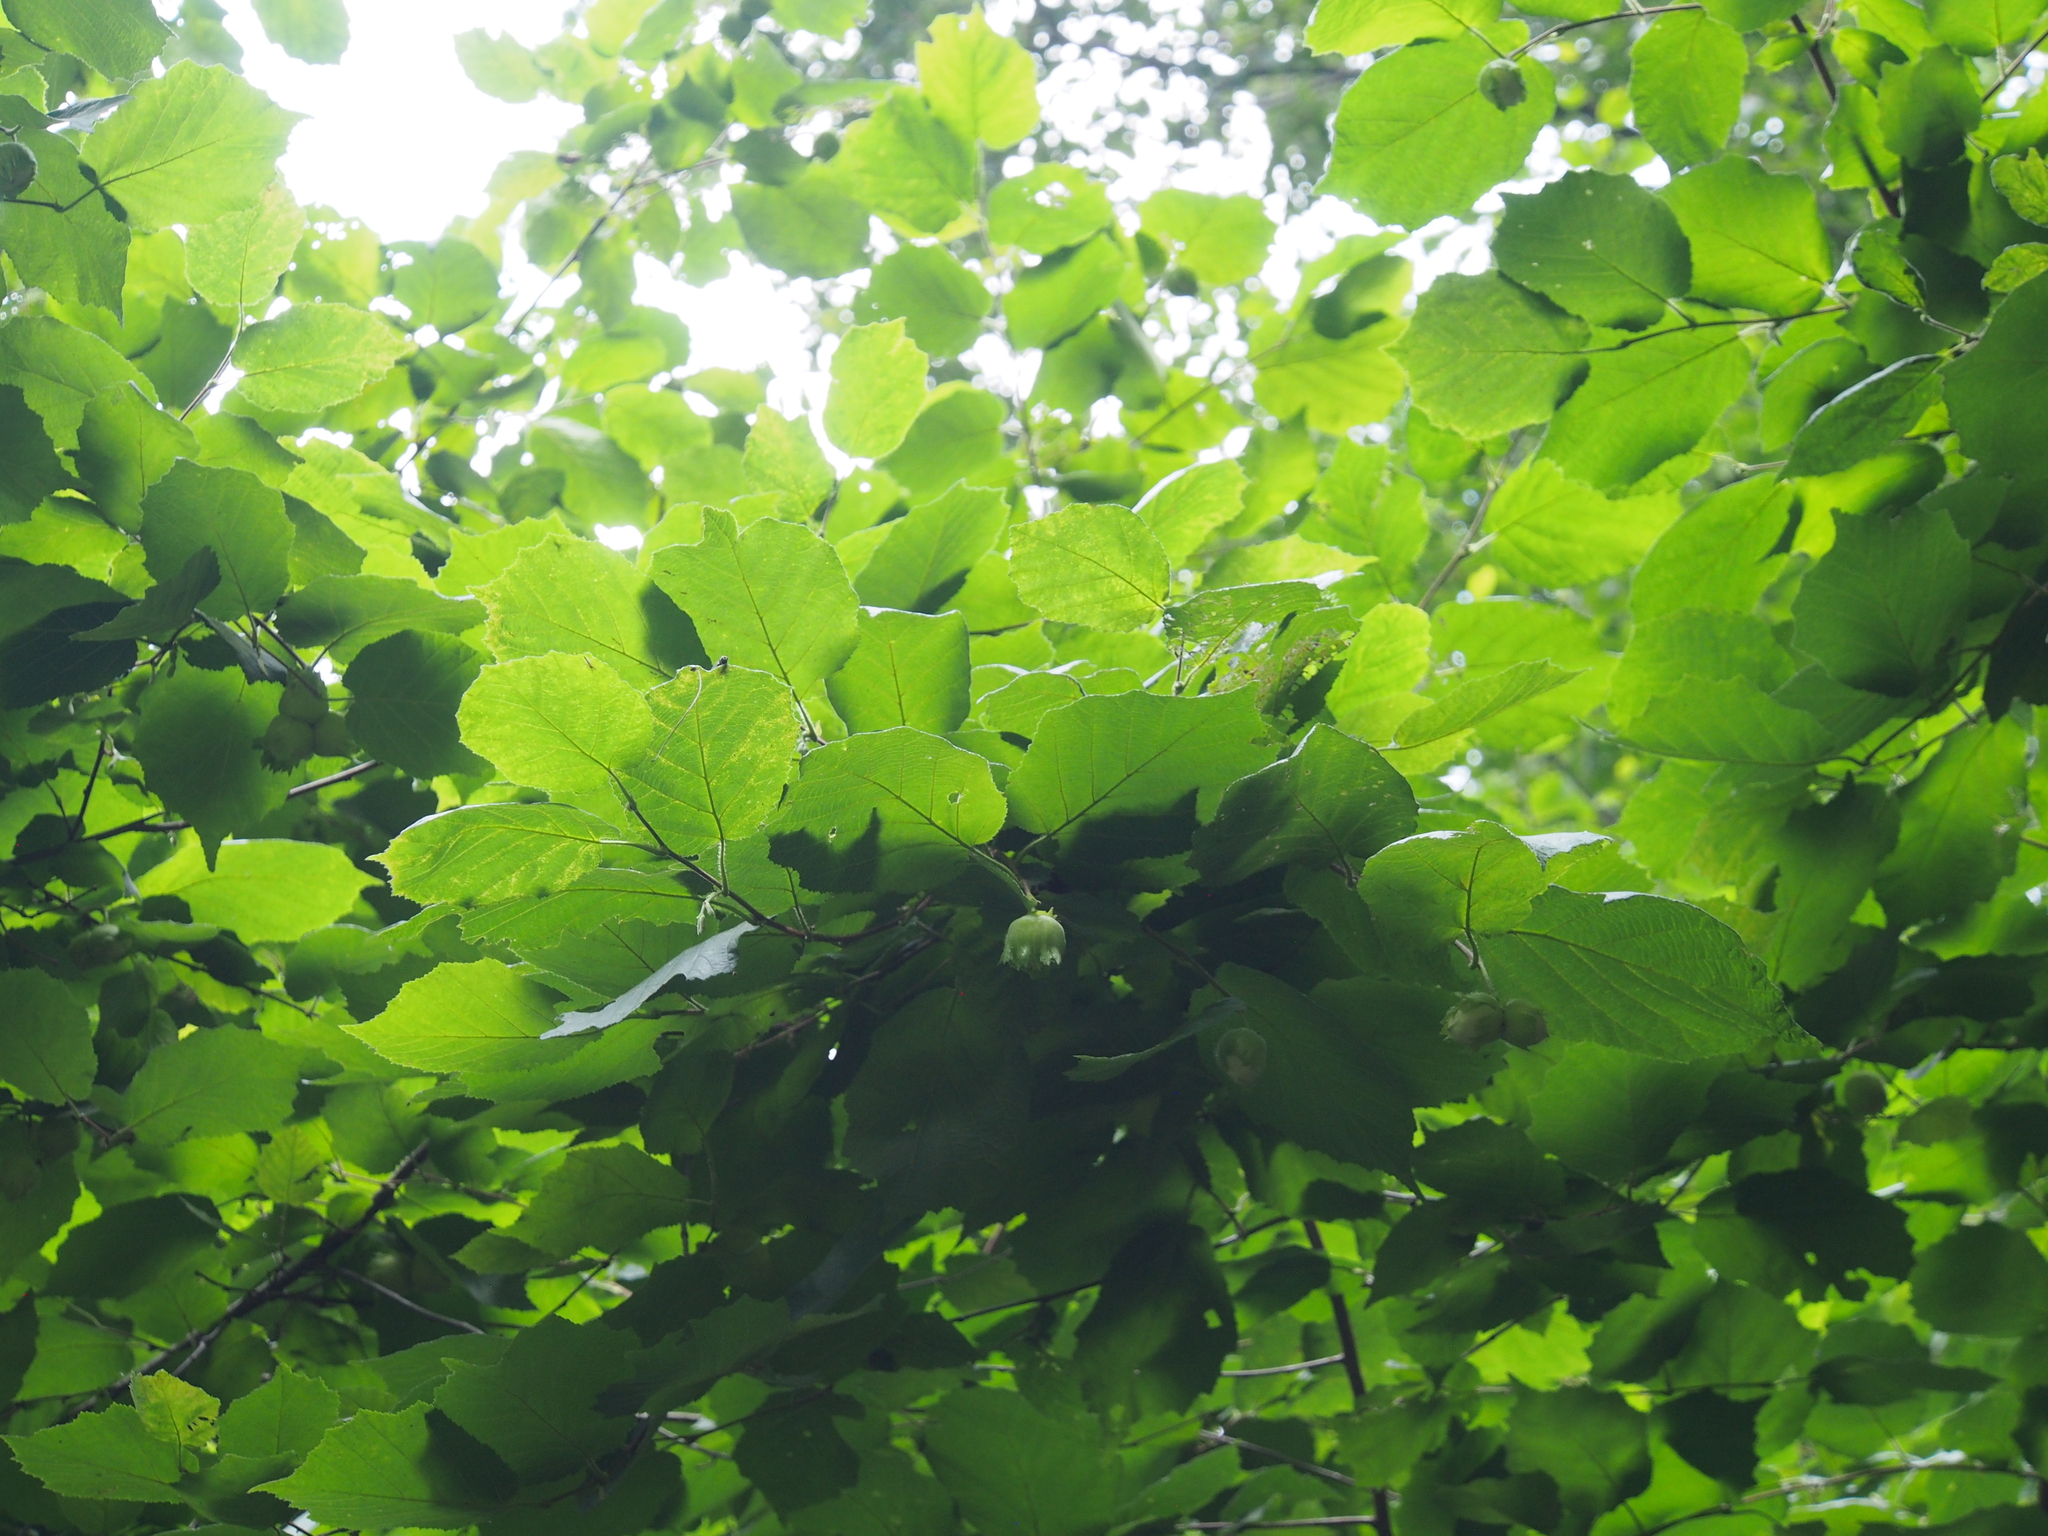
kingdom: Plantae
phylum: Tracheophyta
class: Magnoliopsida
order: Fagales
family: Betulaceae
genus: Corylus
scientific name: Corylus americana
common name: American hazel
